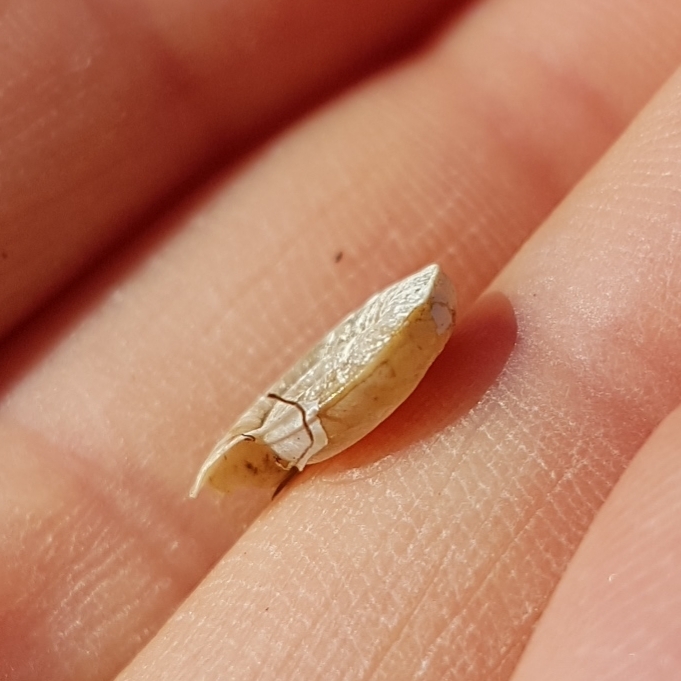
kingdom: Animalia
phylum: Mollusca
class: Gastropoda
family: Planorbidae
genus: Planorbis
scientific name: Planorbis planorbis
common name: Margined ramshorn
